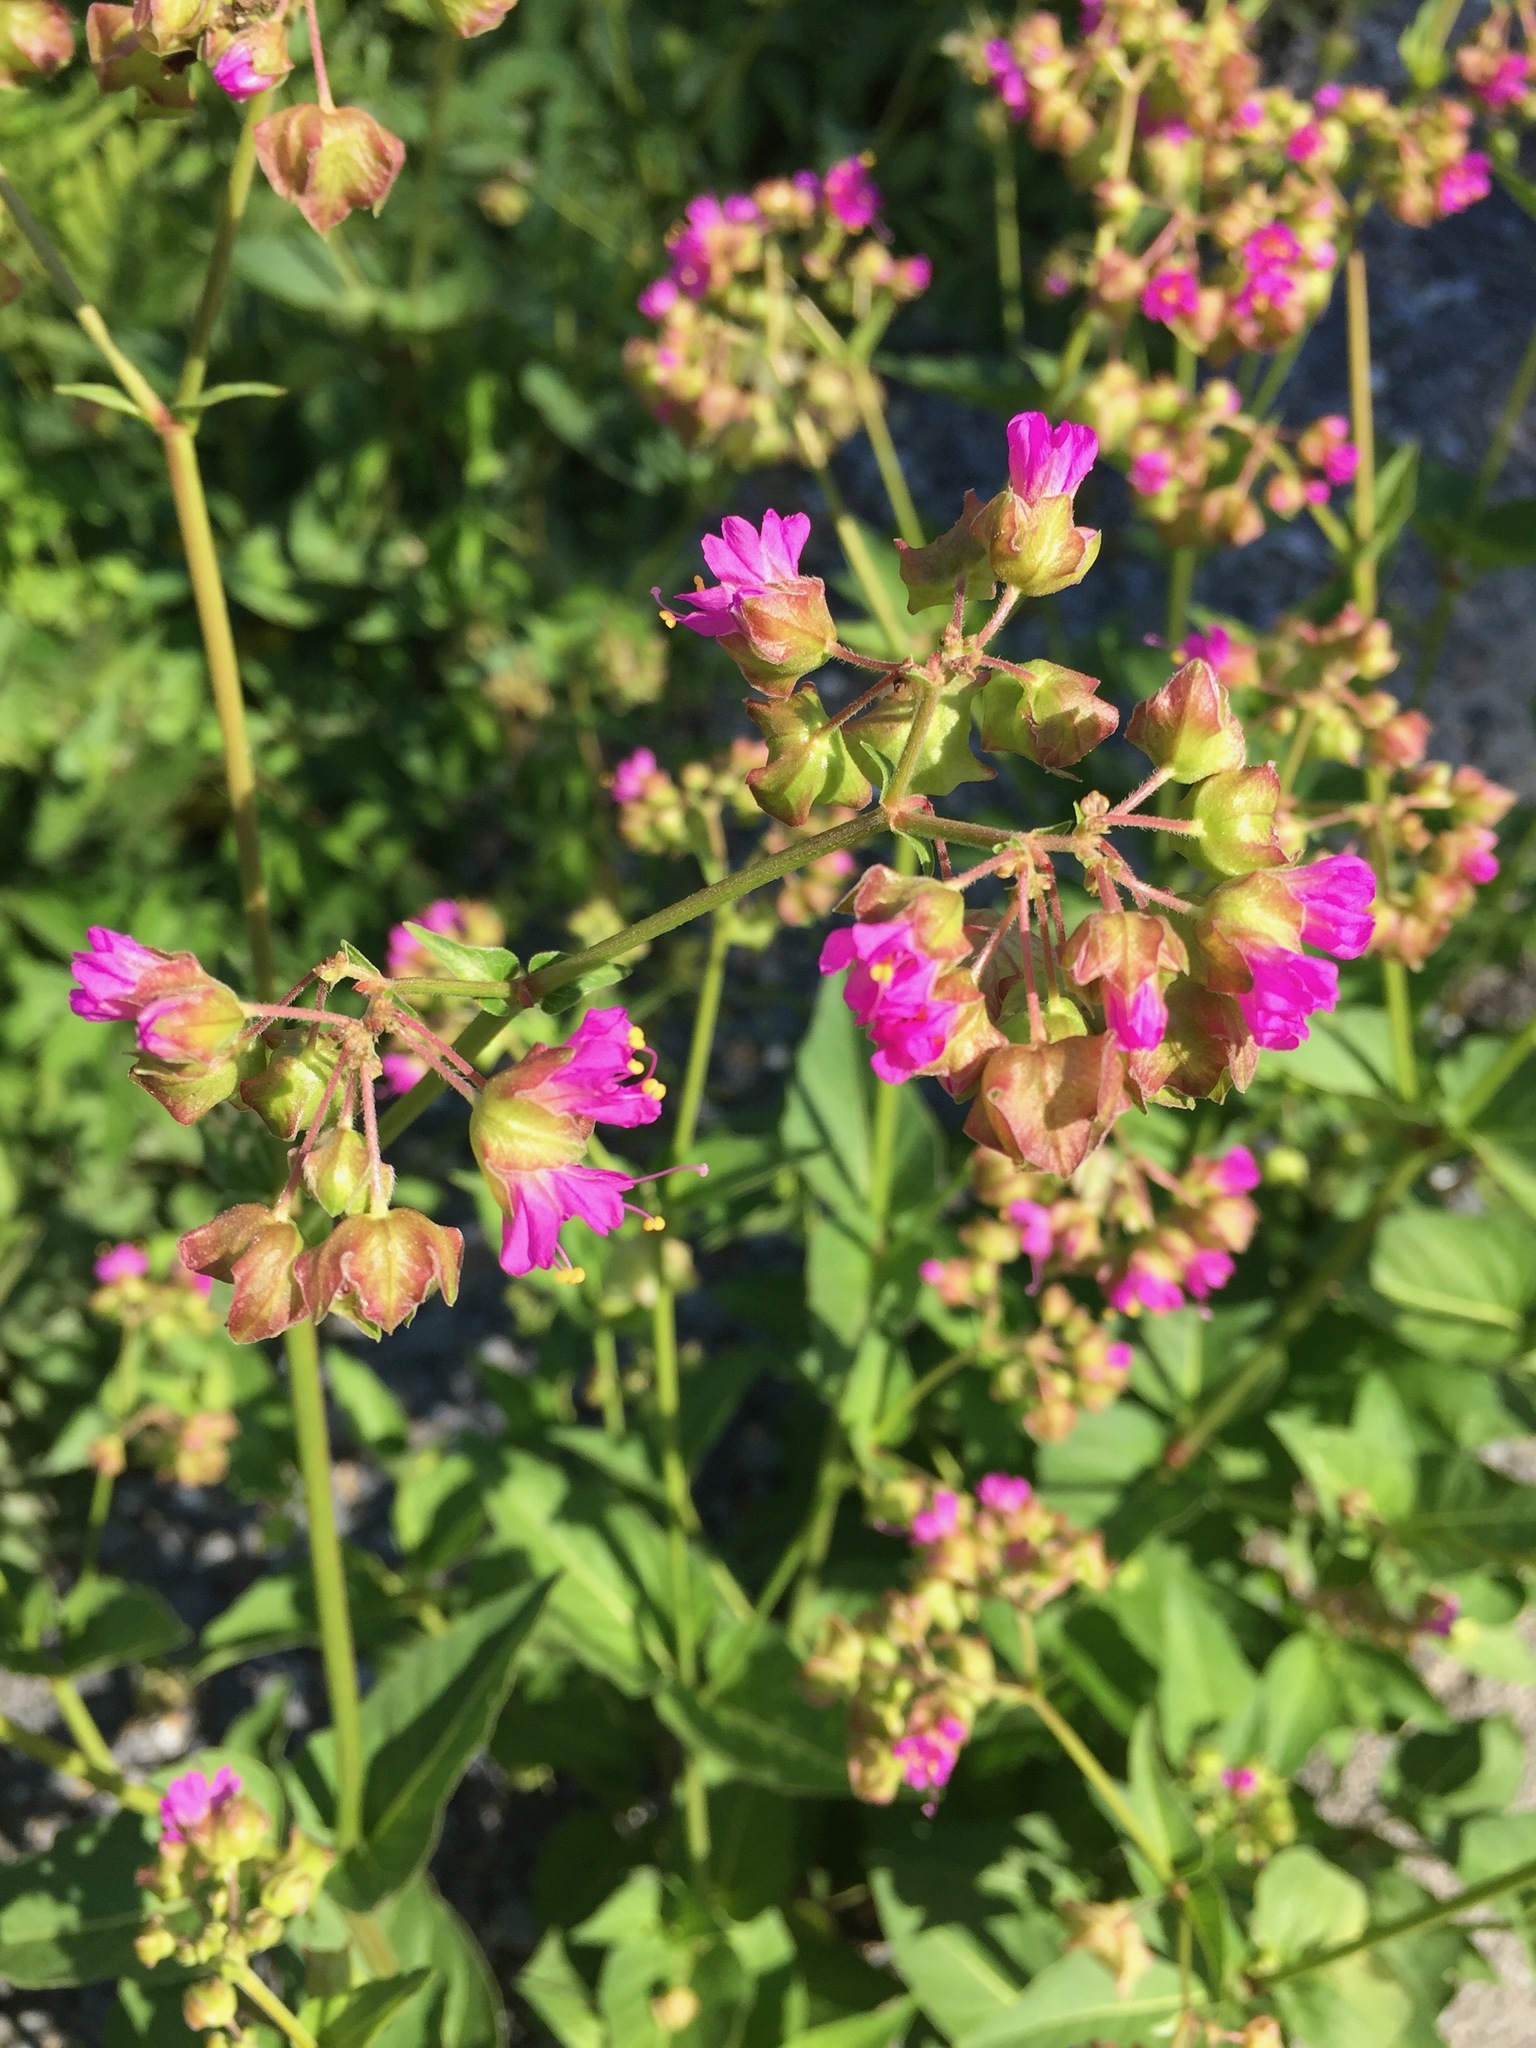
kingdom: Plantae
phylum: Tracheophyta
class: Magnoliopsida
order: Caryophyllales
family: Nyctaginaceae
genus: Mirabilis
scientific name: Mirabilis nyctaginea
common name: Umbrella wort
